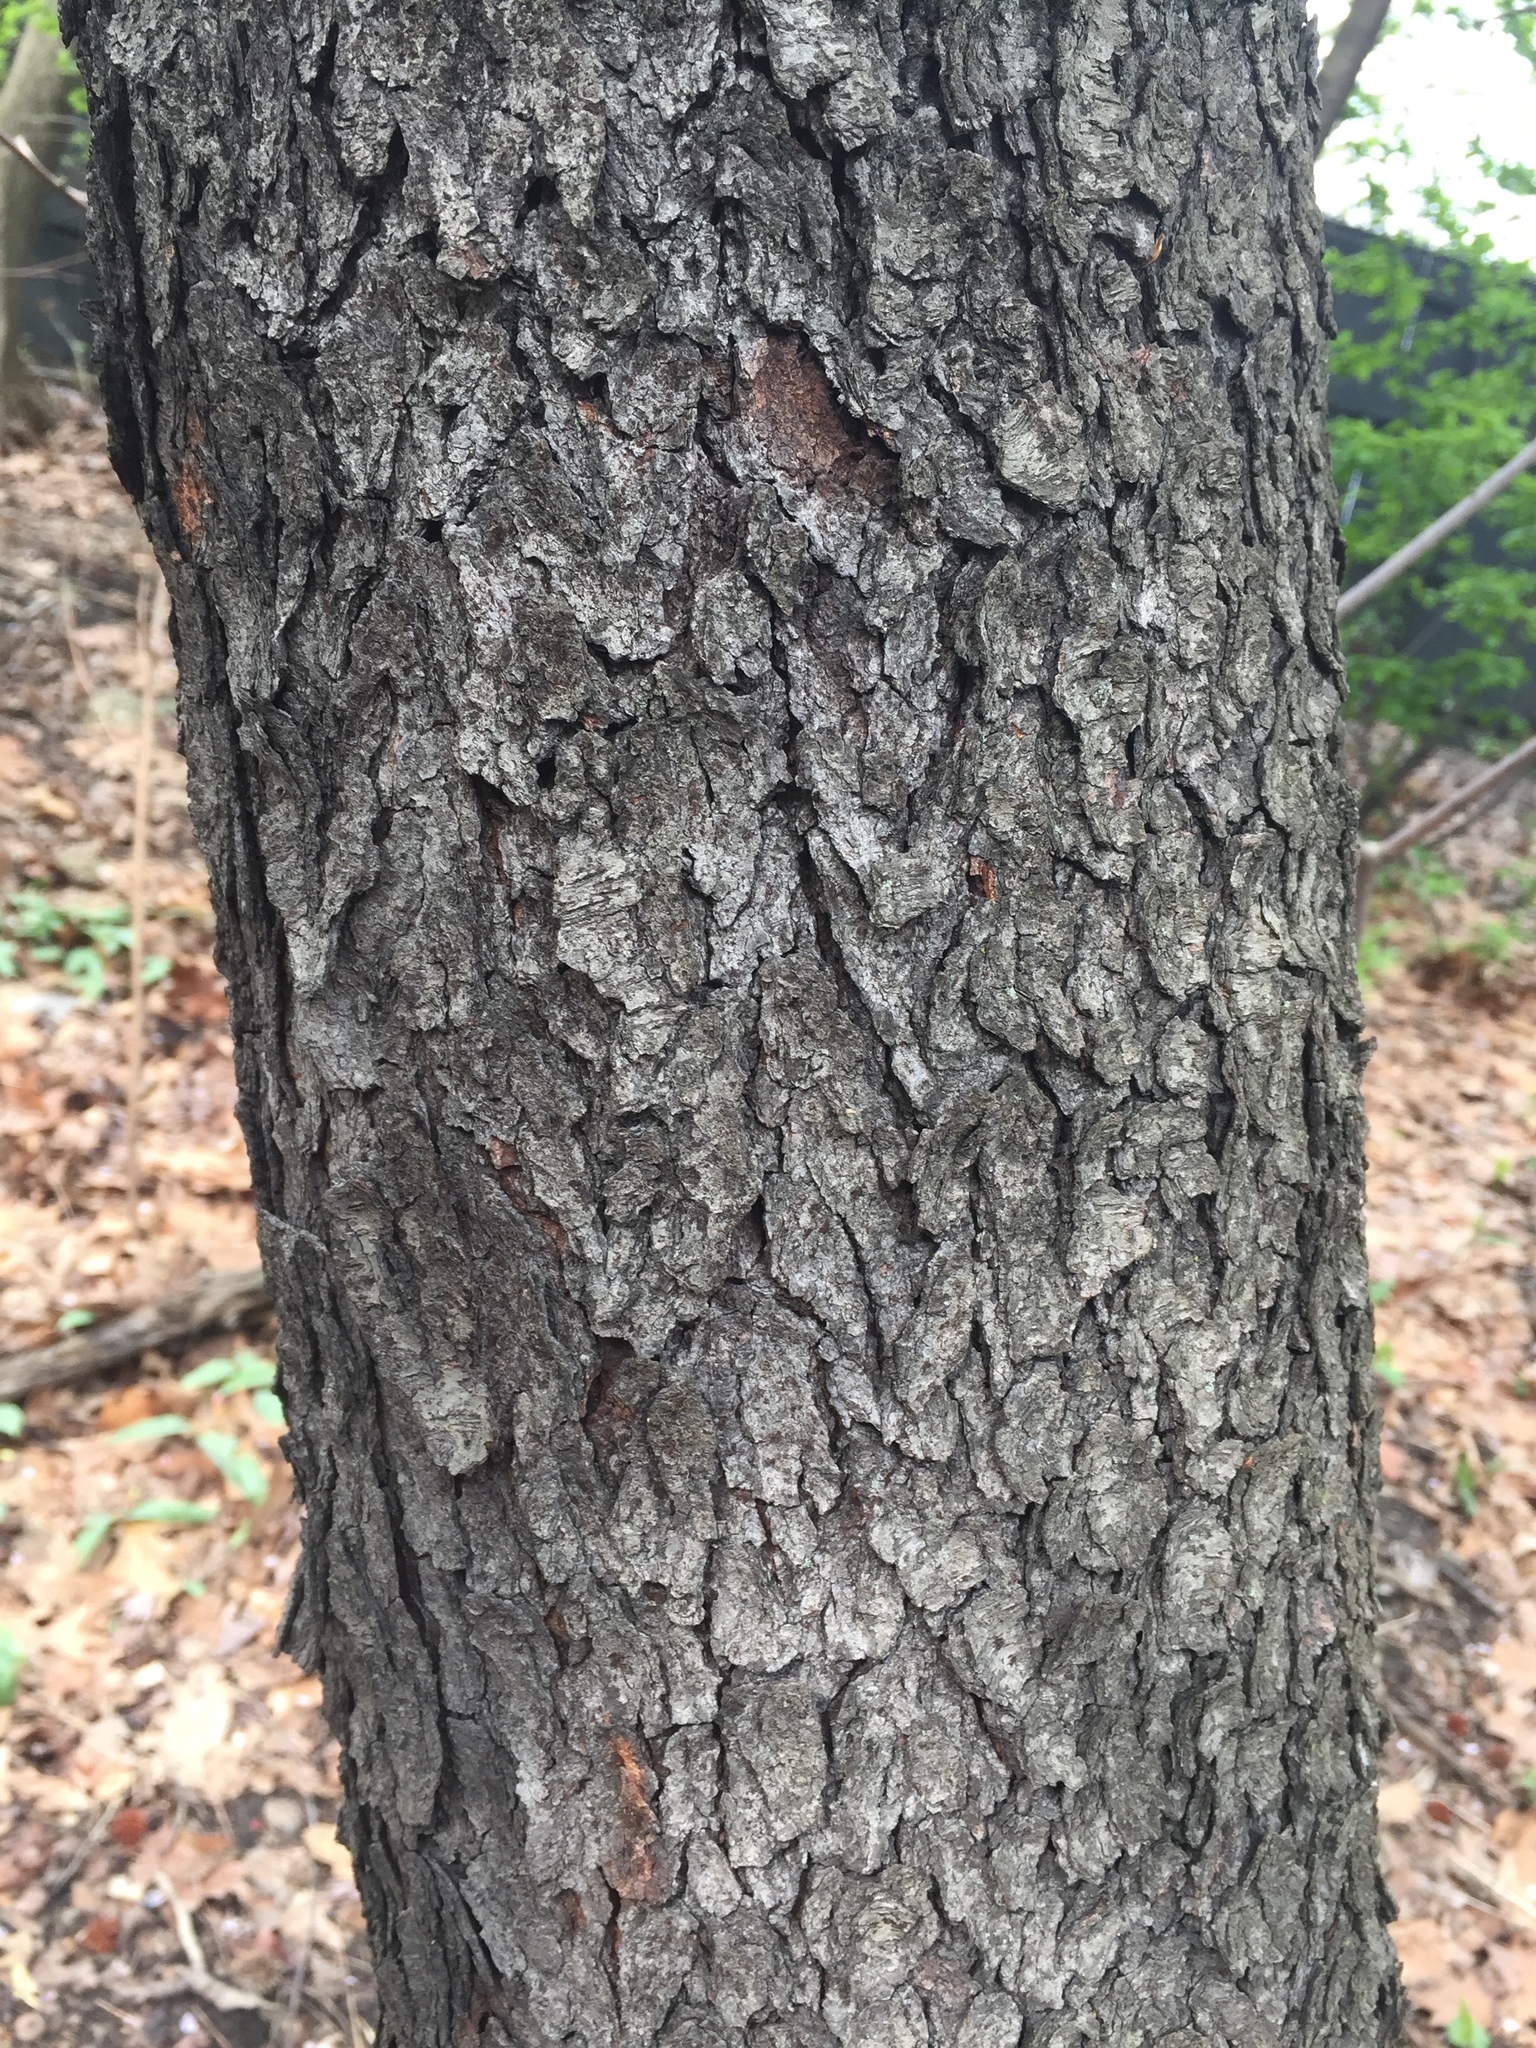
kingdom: Plantae
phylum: Tracheophyta
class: Magnoliopsida
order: Rosales
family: Rosaceae
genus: Prunus
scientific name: Prunus serotina
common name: Black cherry
